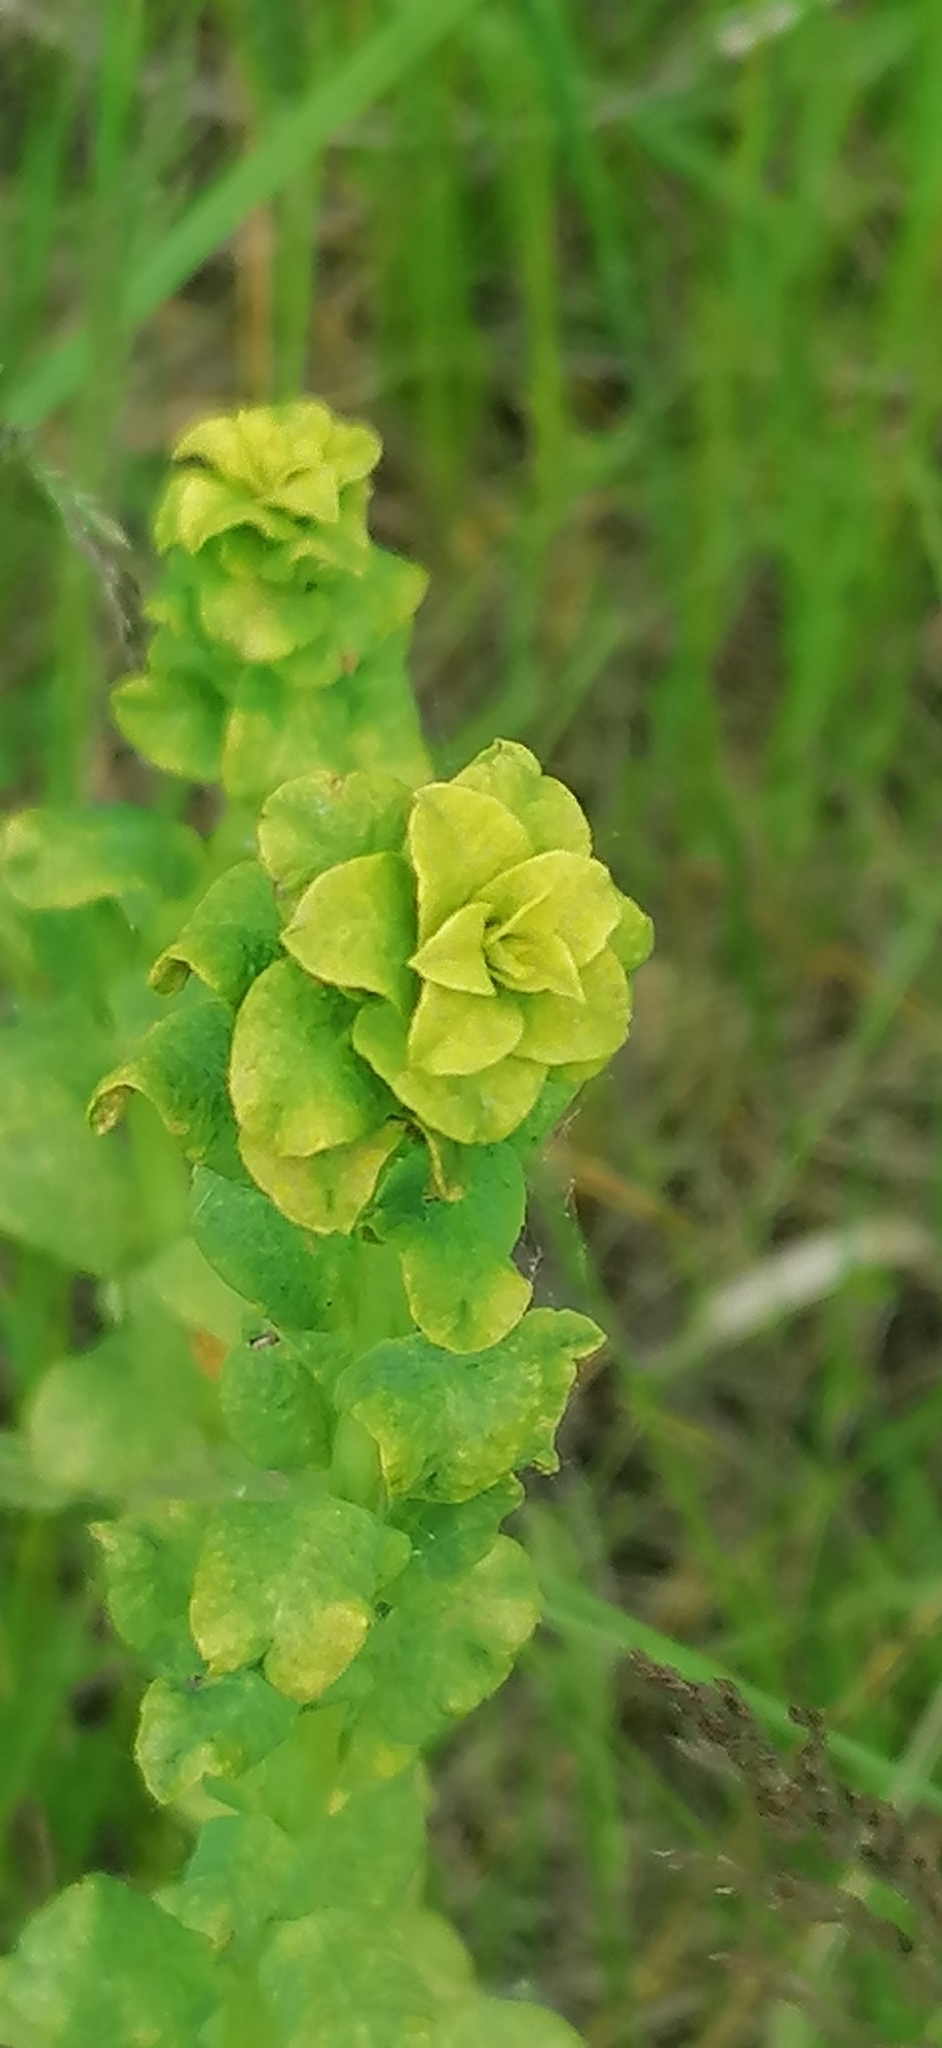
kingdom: Plantae
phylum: Tracheophyta
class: Magnoliopsida
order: Malpighiales
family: Euphorbiaceae
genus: Euphorbia
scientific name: Euphorbia cyparissias
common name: Cypress spurge
